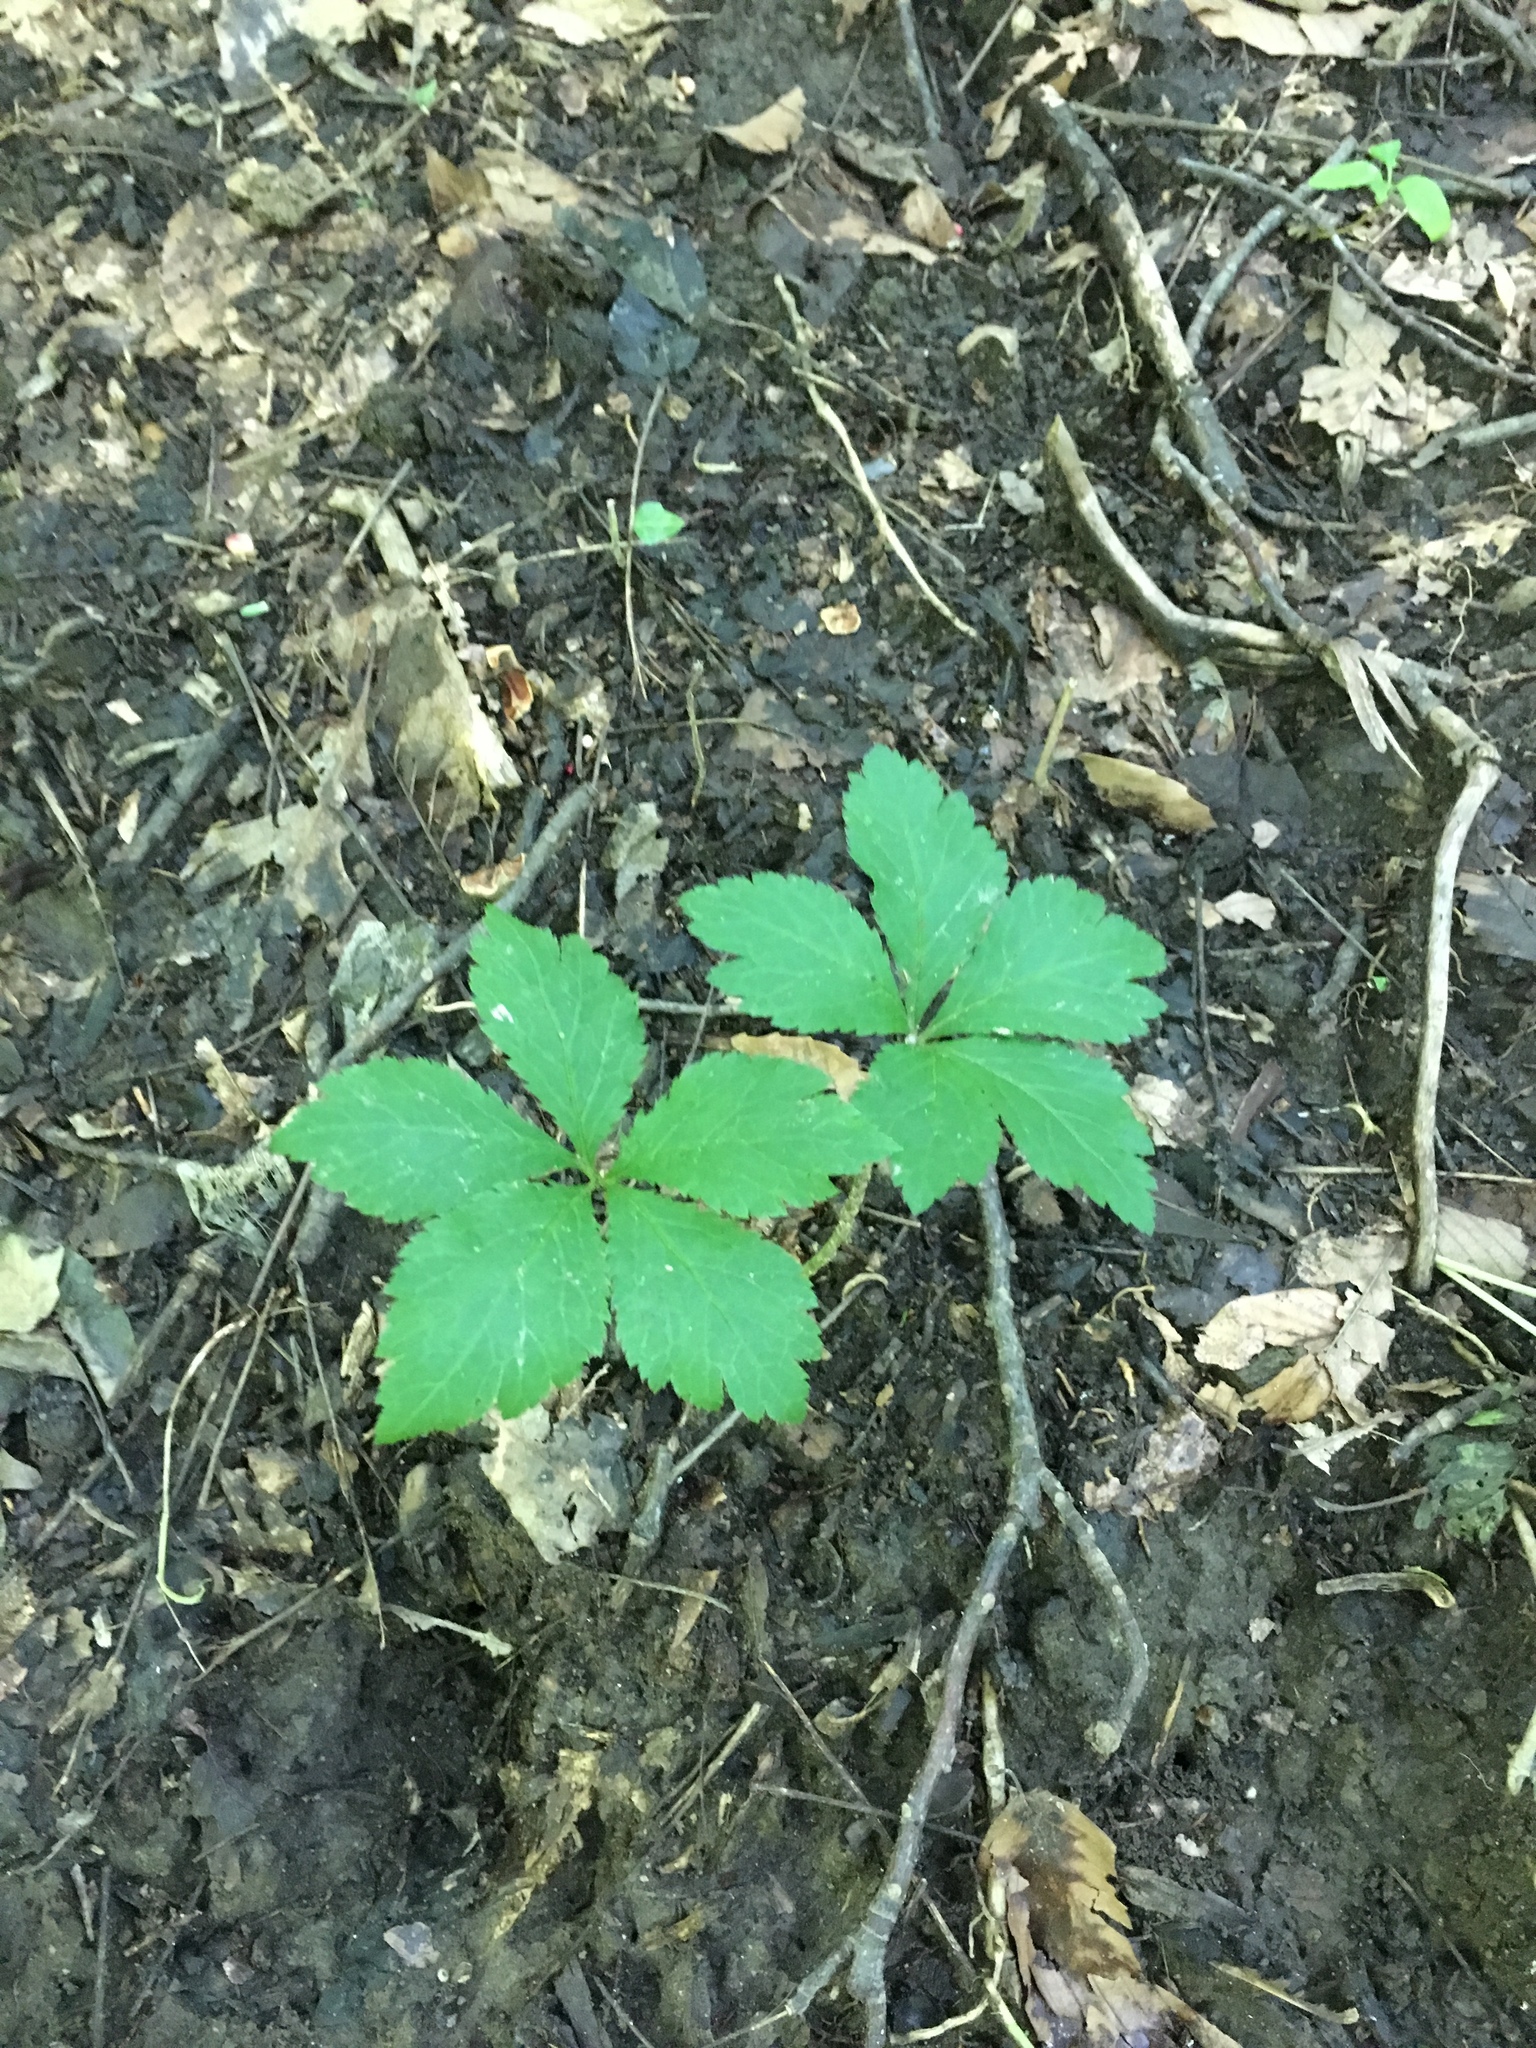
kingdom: Plantae
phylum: Tracheophyta
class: Magnoliopsida
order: Apiales
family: Apiaceae
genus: Sanicula
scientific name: Sanicula canadensis
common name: Canada sanicle
